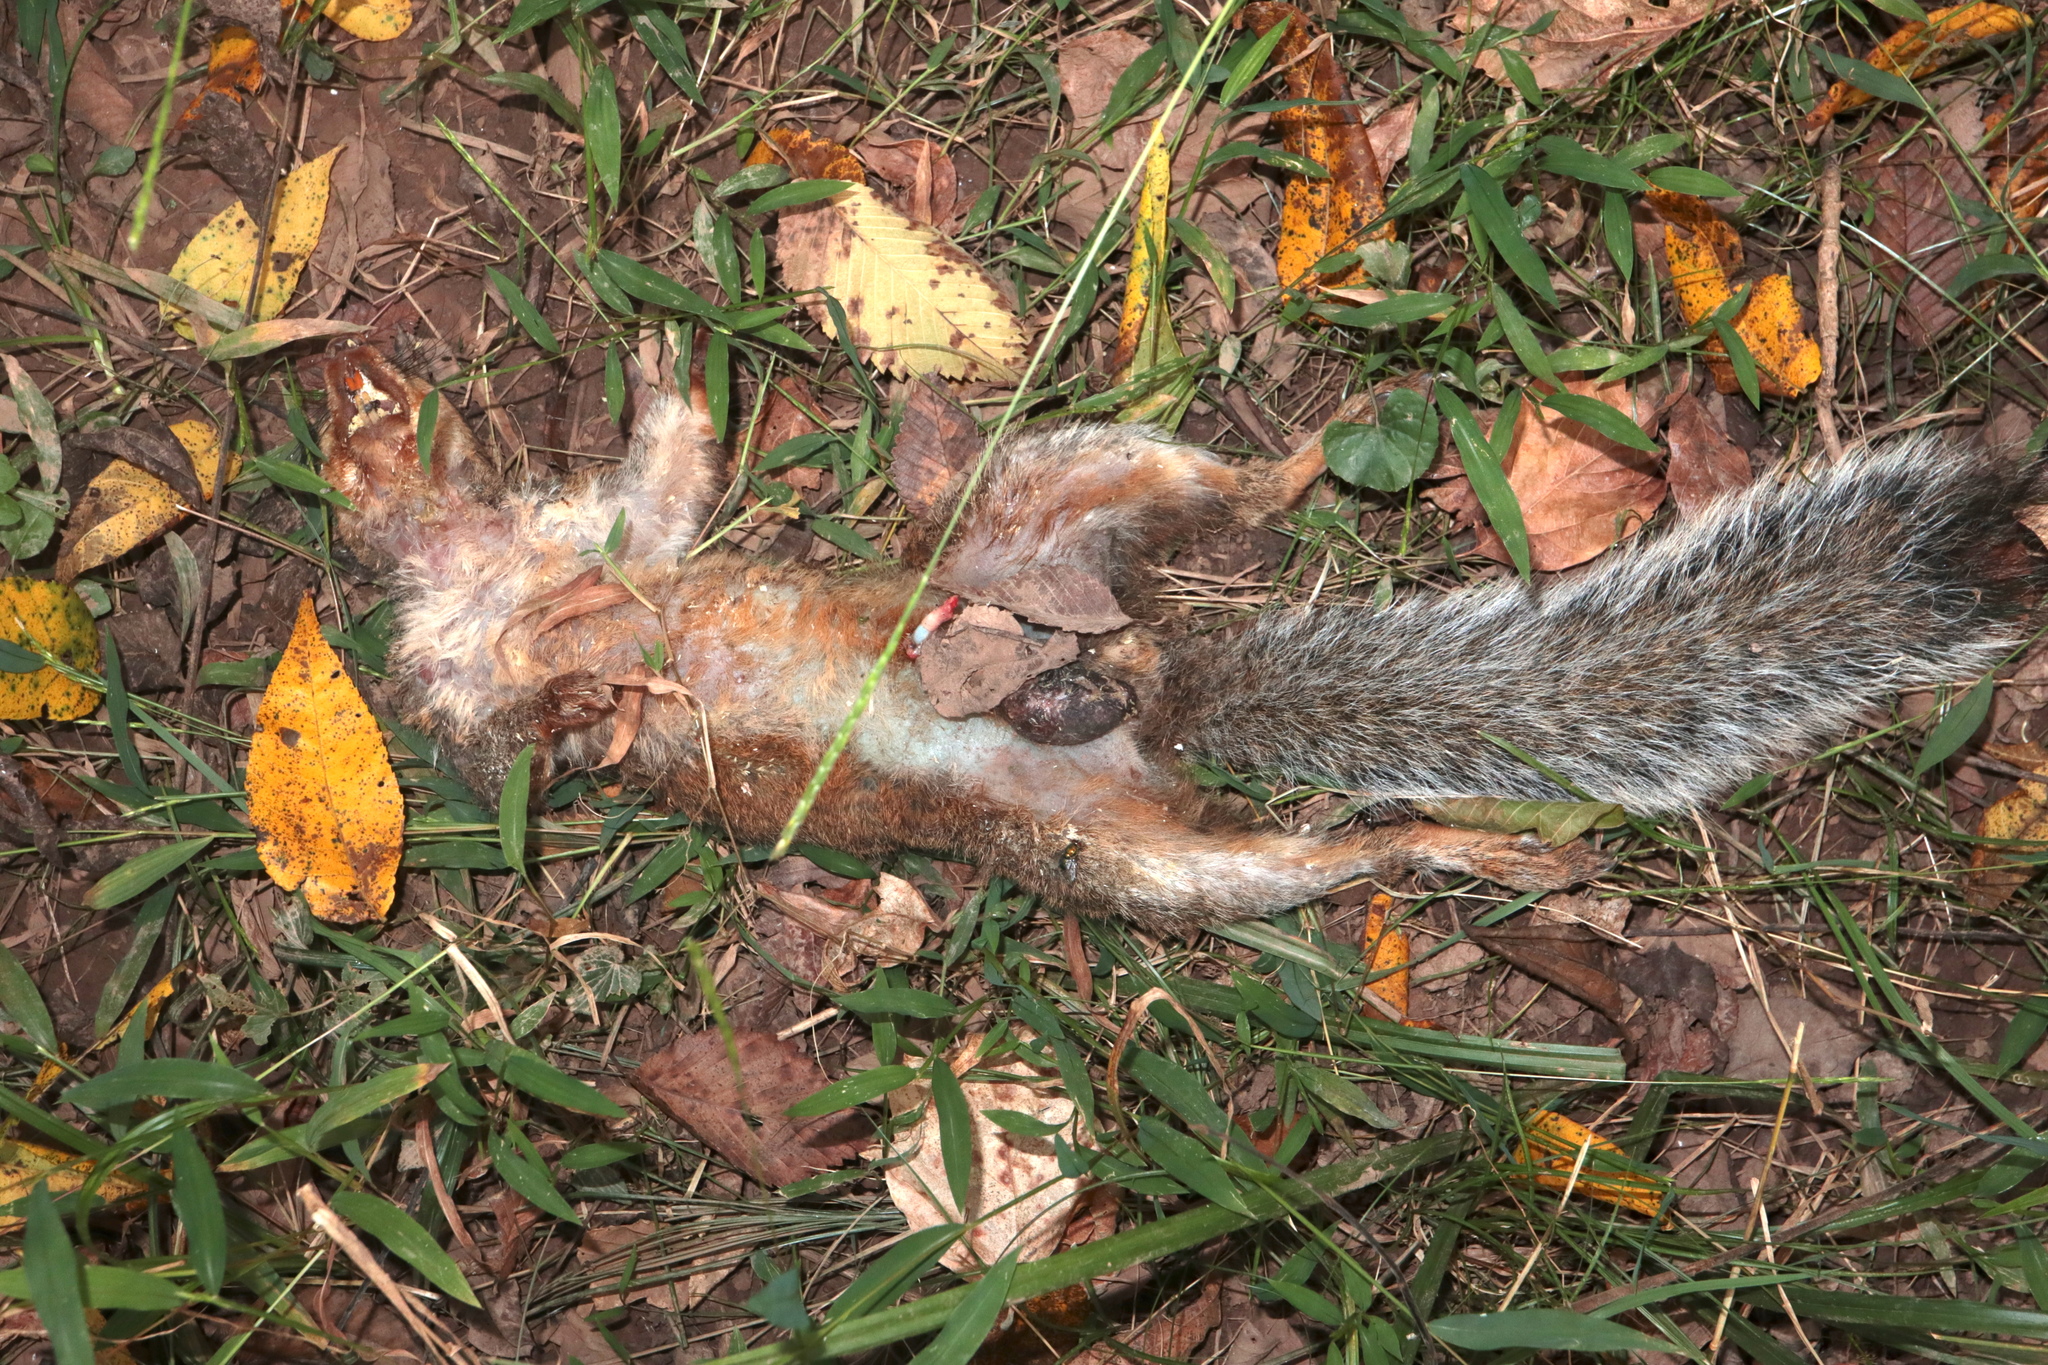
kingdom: Animalia
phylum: Chordata
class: Mammalia
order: Rodentia
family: Sciuridae
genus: Sciurus
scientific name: Sciurus carolinensis
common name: Eastern gray squirrel
